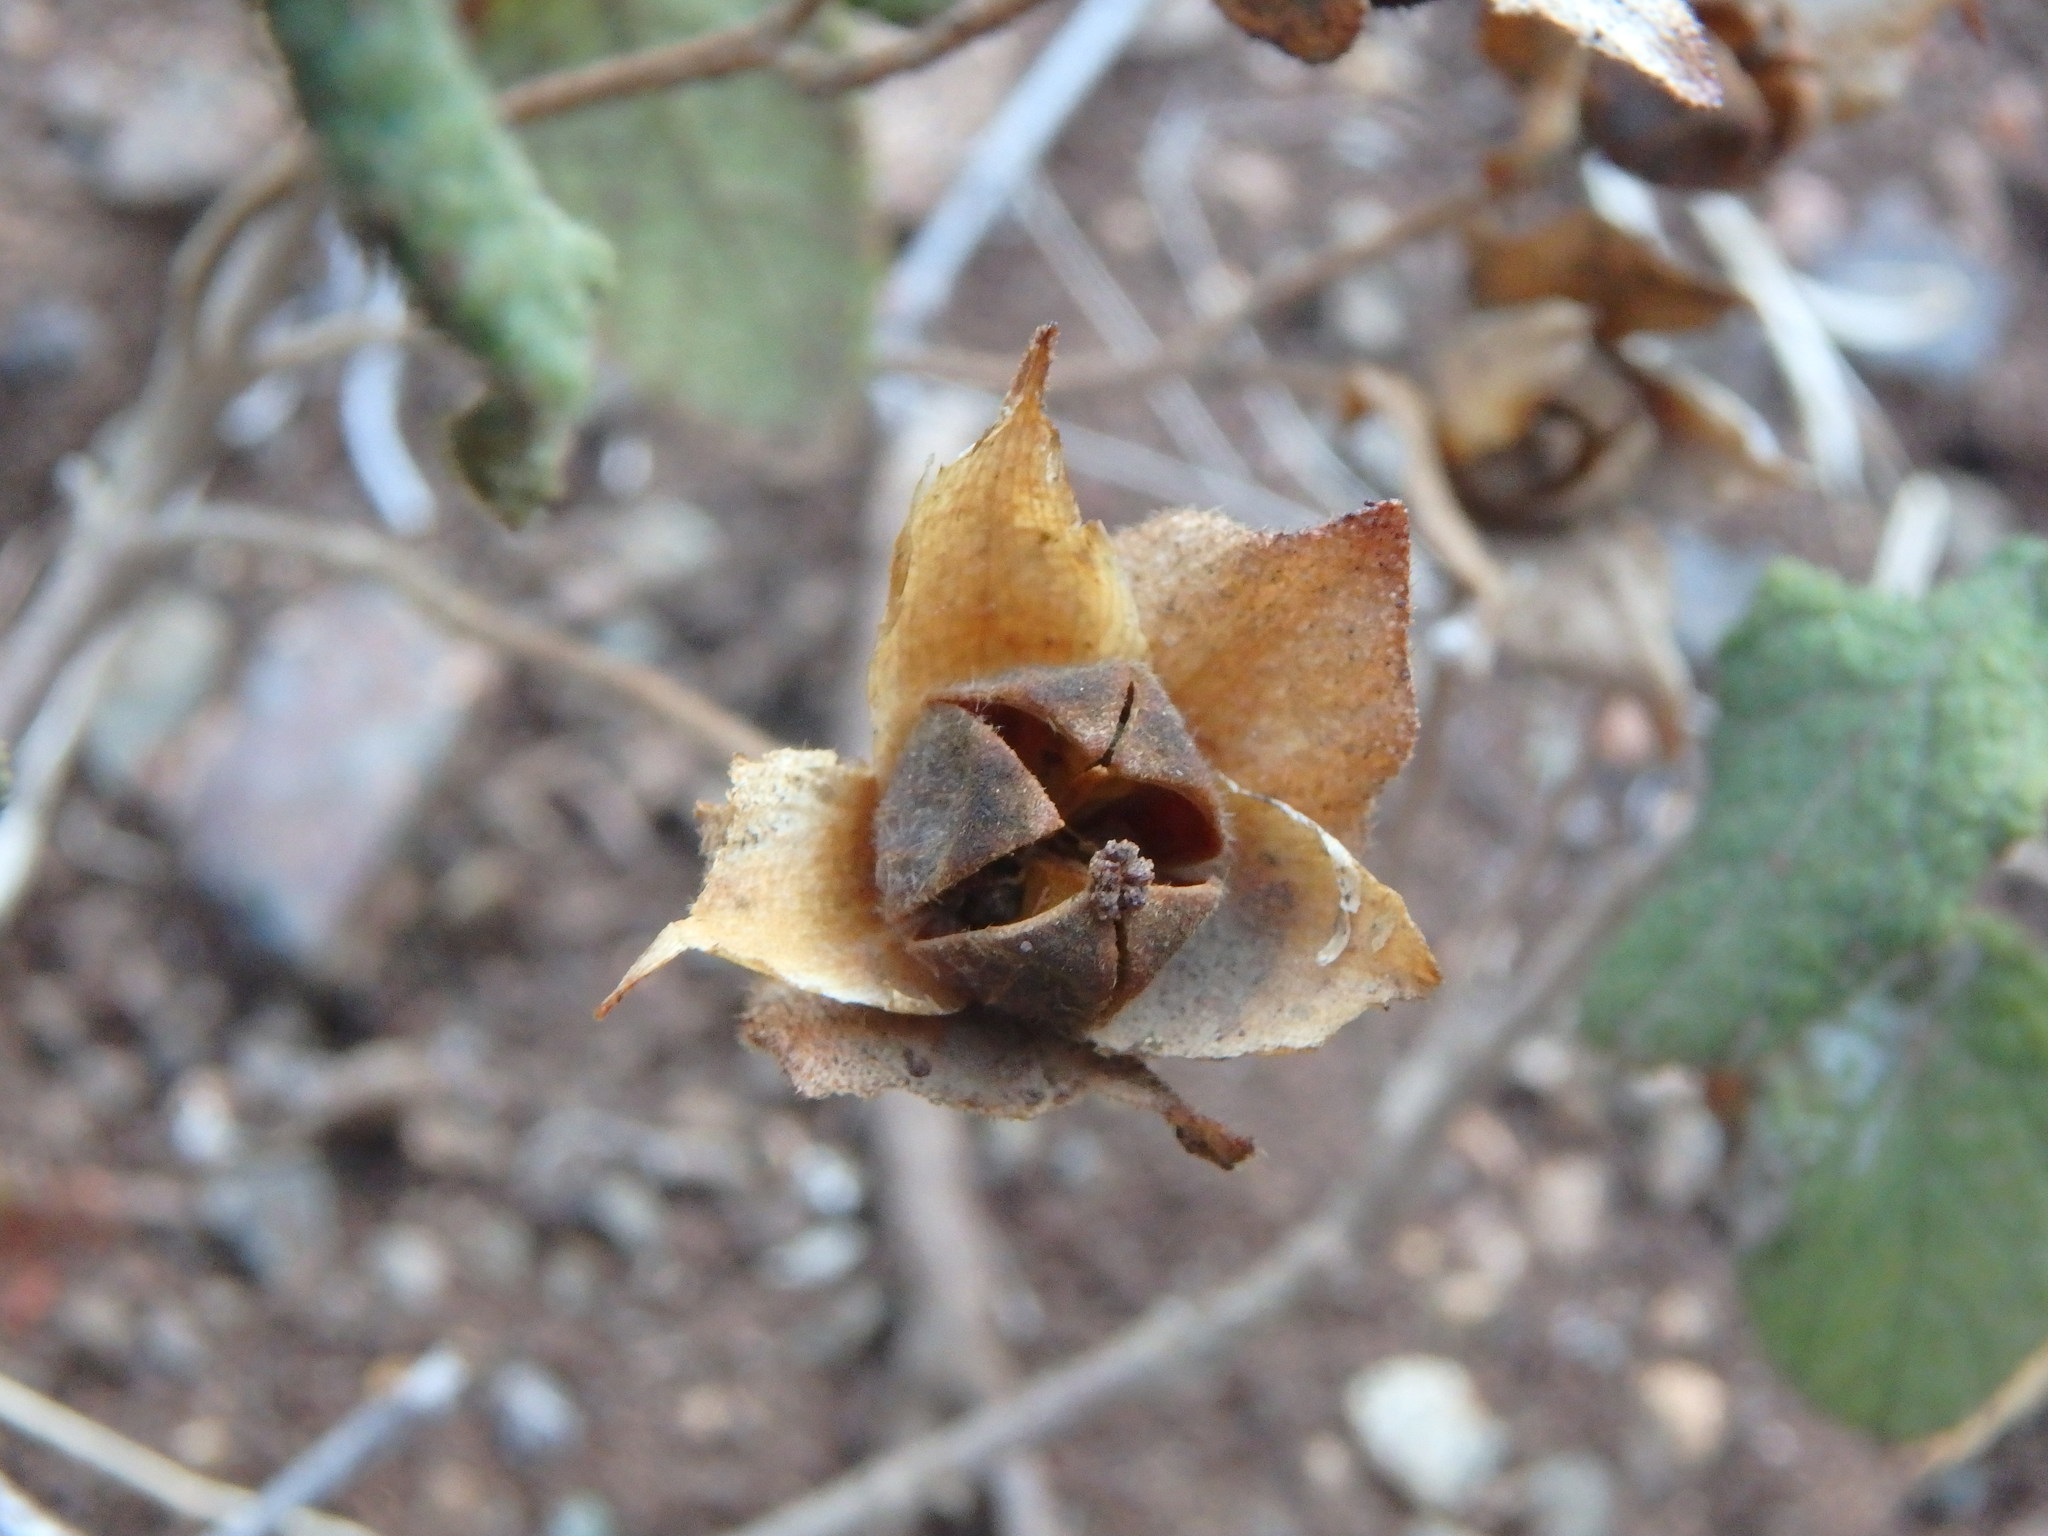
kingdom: Plantae
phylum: Tracheophyta
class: Magnoliopsida
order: Malvales
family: Cistaceae
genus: Cistus
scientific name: Cistus salviifolius
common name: Salvia cistus
